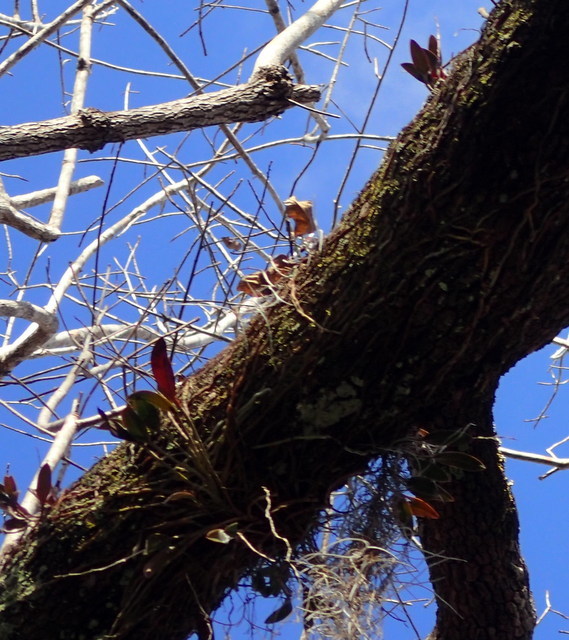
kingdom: Plantae
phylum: Tracheophyta
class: Liliopsida
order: Asparagales
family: Orchidaceae
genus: Epidendrum
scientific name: Epidendrum conopseum
